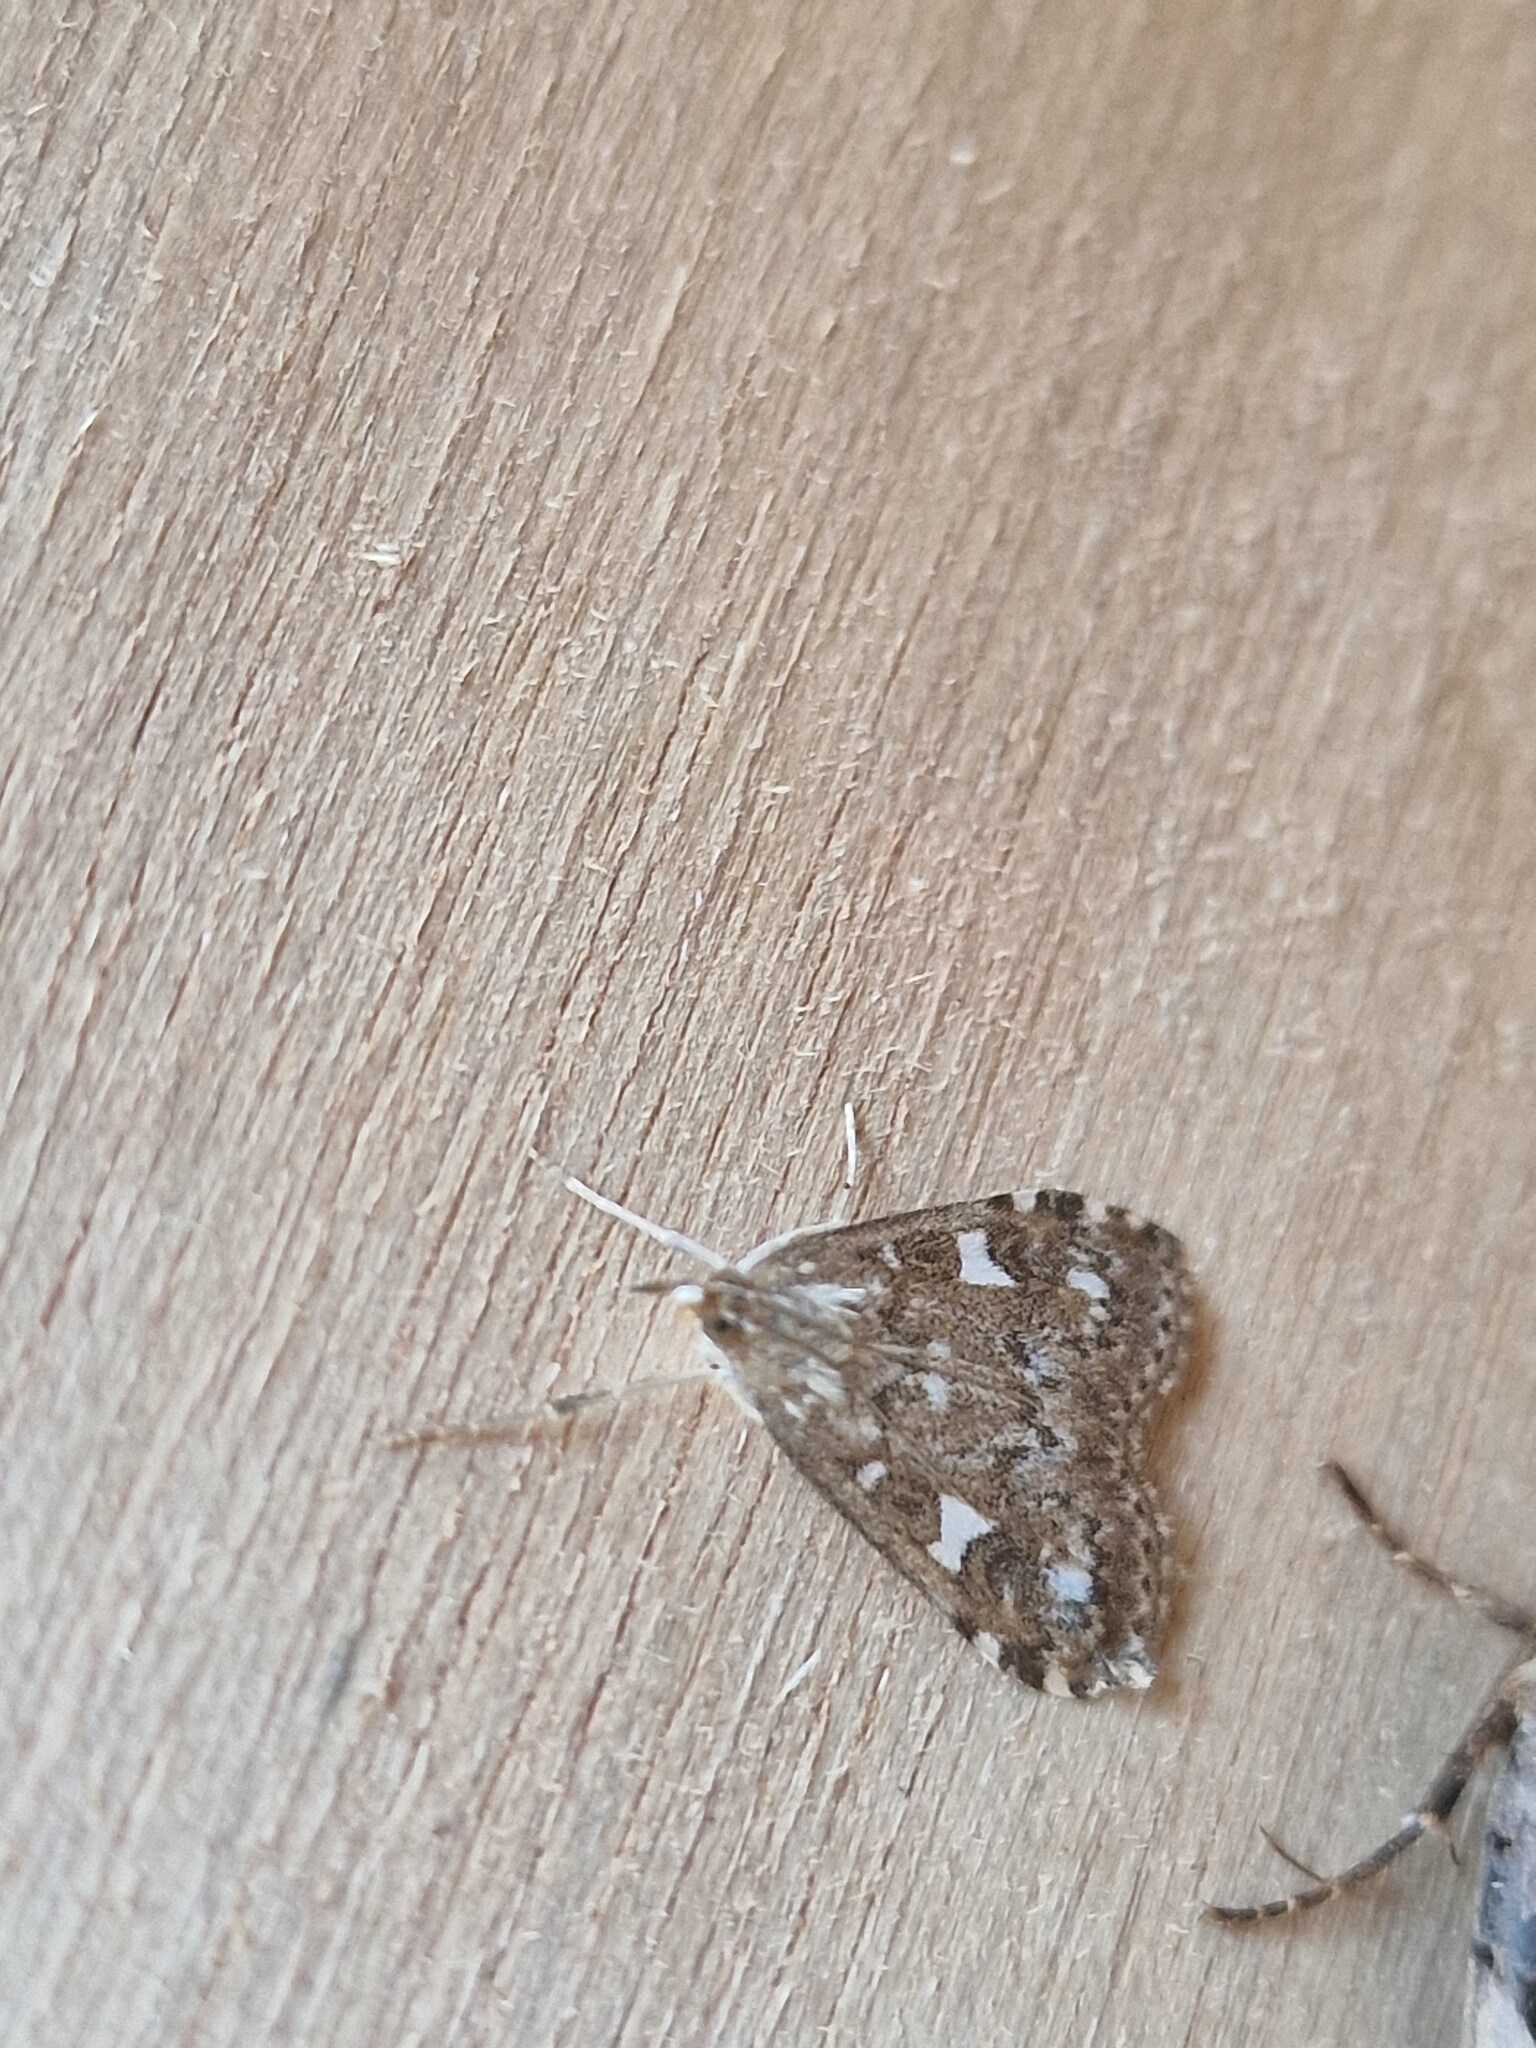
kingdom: Animalia
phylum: Arthropoda
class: Insecta
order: Lepidoptera
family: Crambidae
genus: Udea
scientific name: Udea olivalis
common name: Olive pearl
